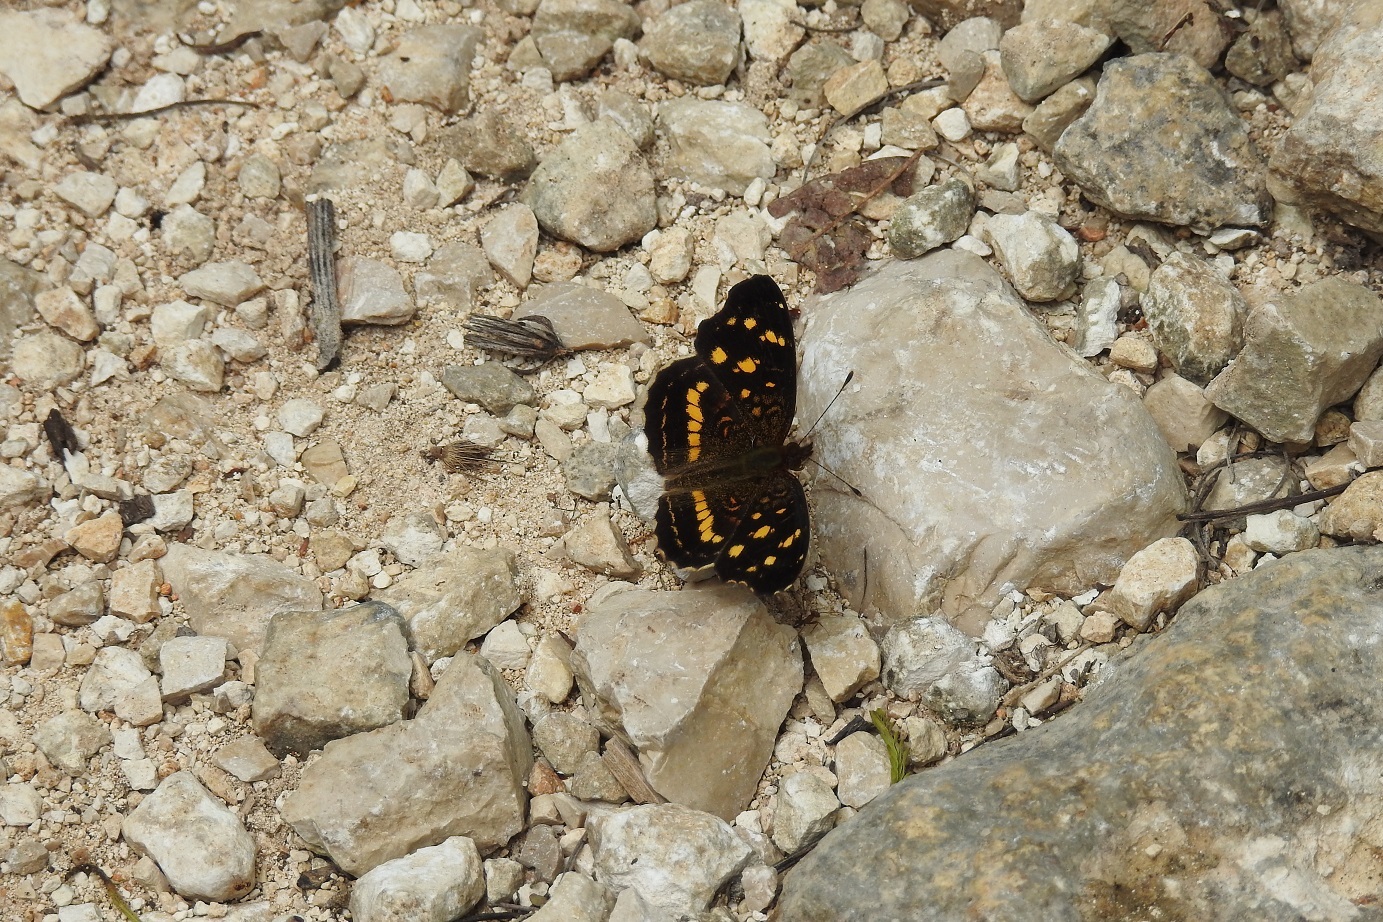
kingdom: Animalia
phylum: Arthropoda
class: Insecta
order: Lepidoptera
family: Nymphalidae
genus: Anthanassa
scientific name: Anthanassa ptolyca
